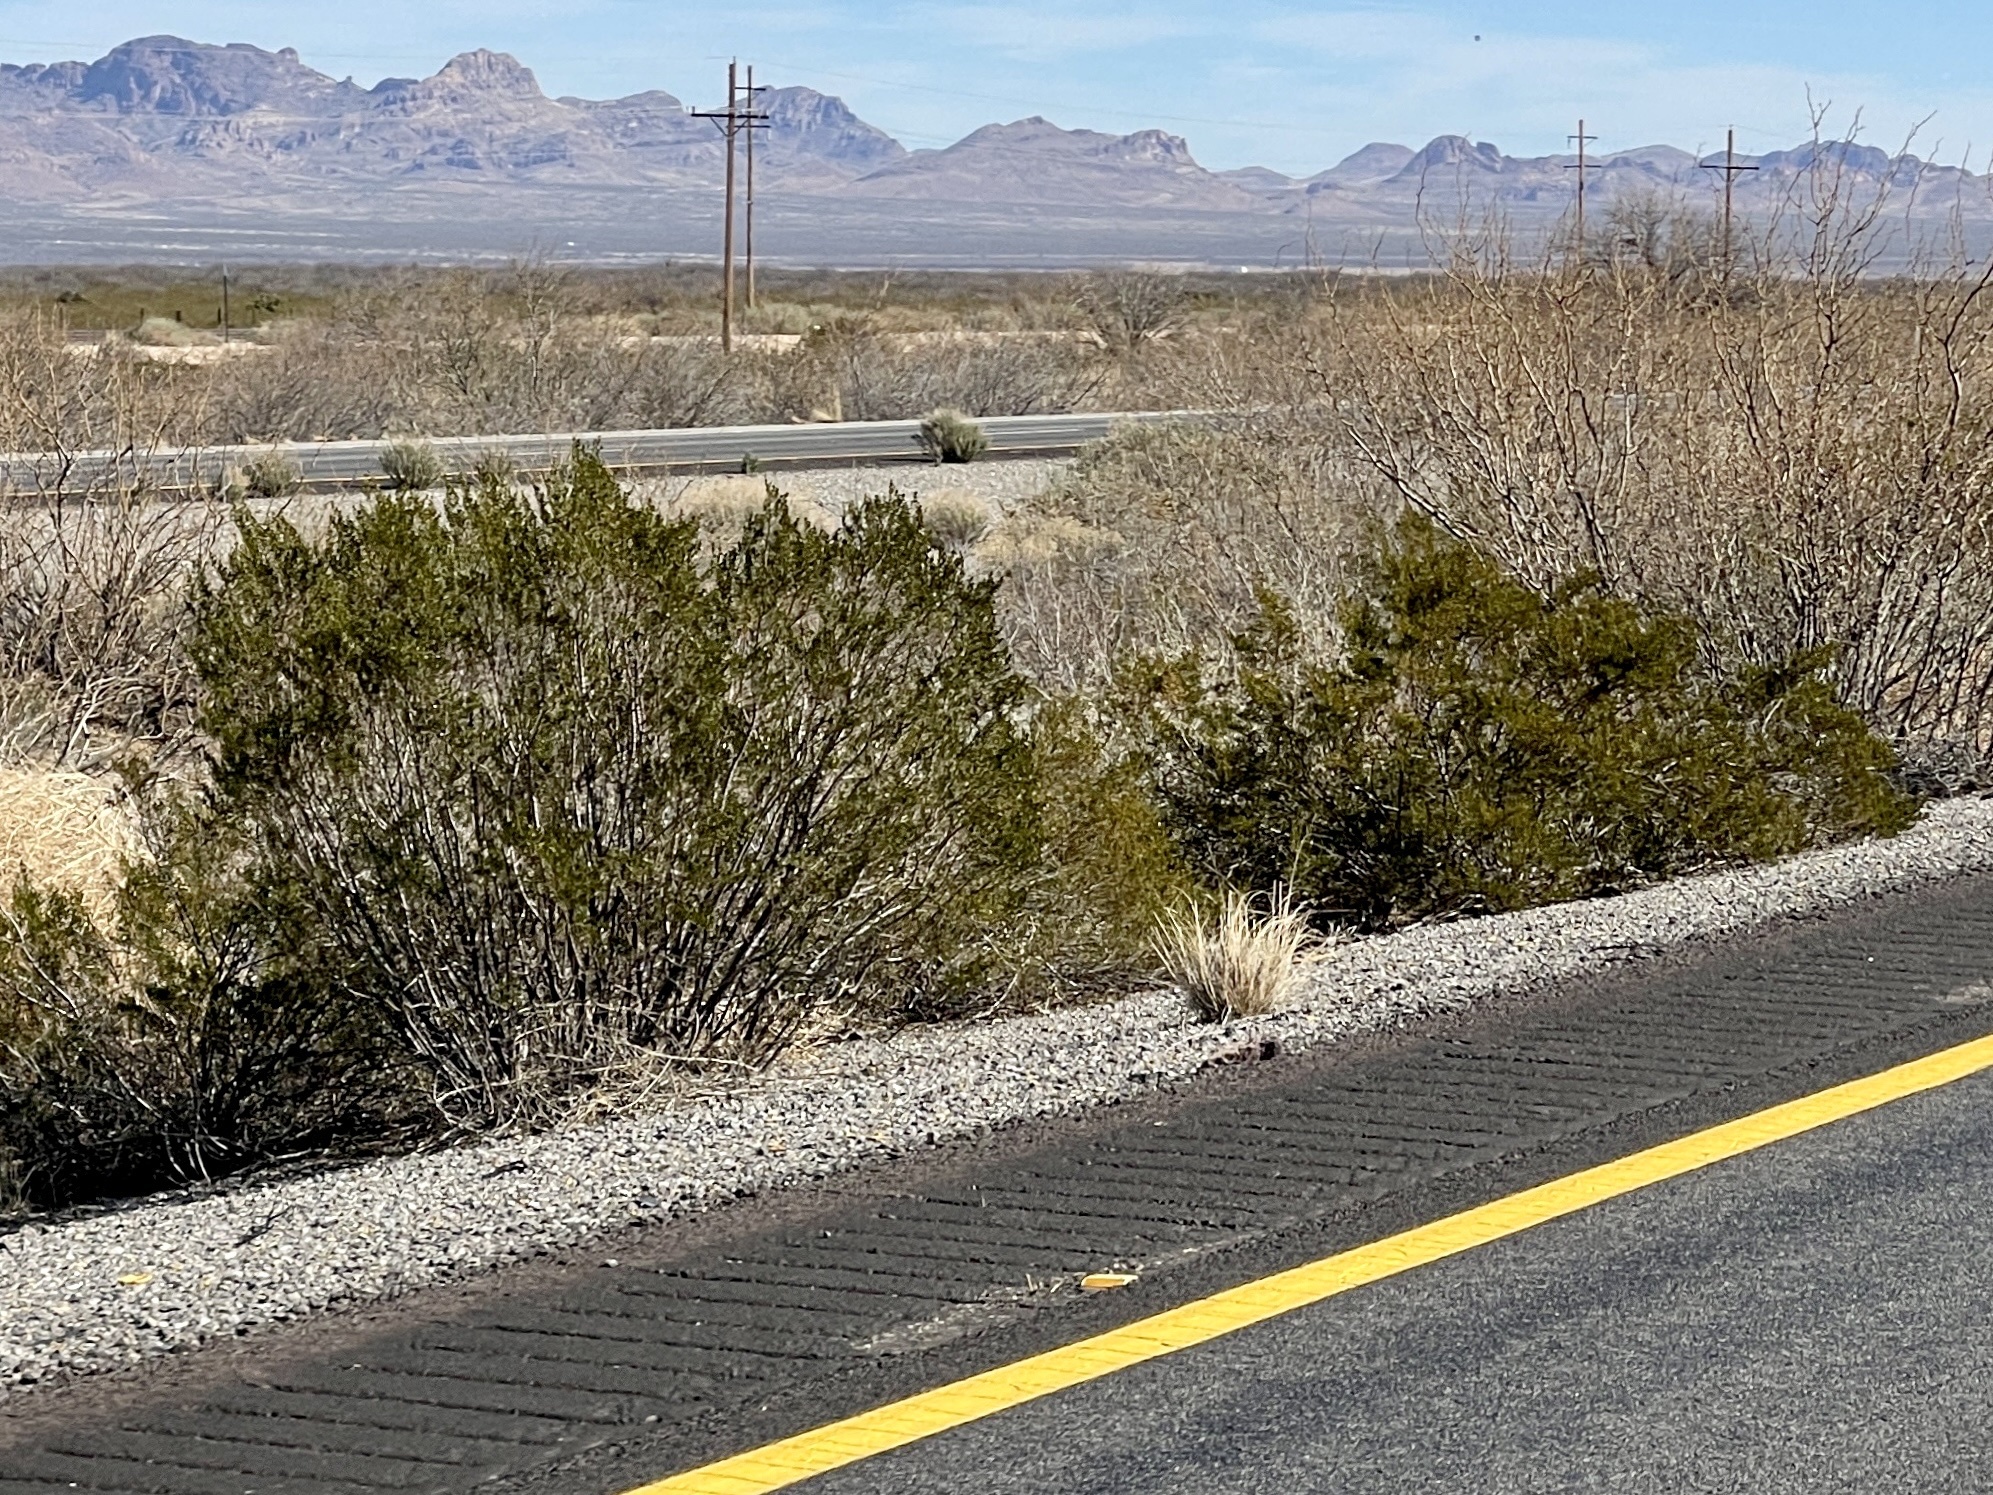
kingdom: Plantae
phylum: Tracheophyta
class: Magnoliopsida
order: Zygophyllales
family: Zygophyllaceae
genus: Larrea
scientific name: Larrea tridentata
